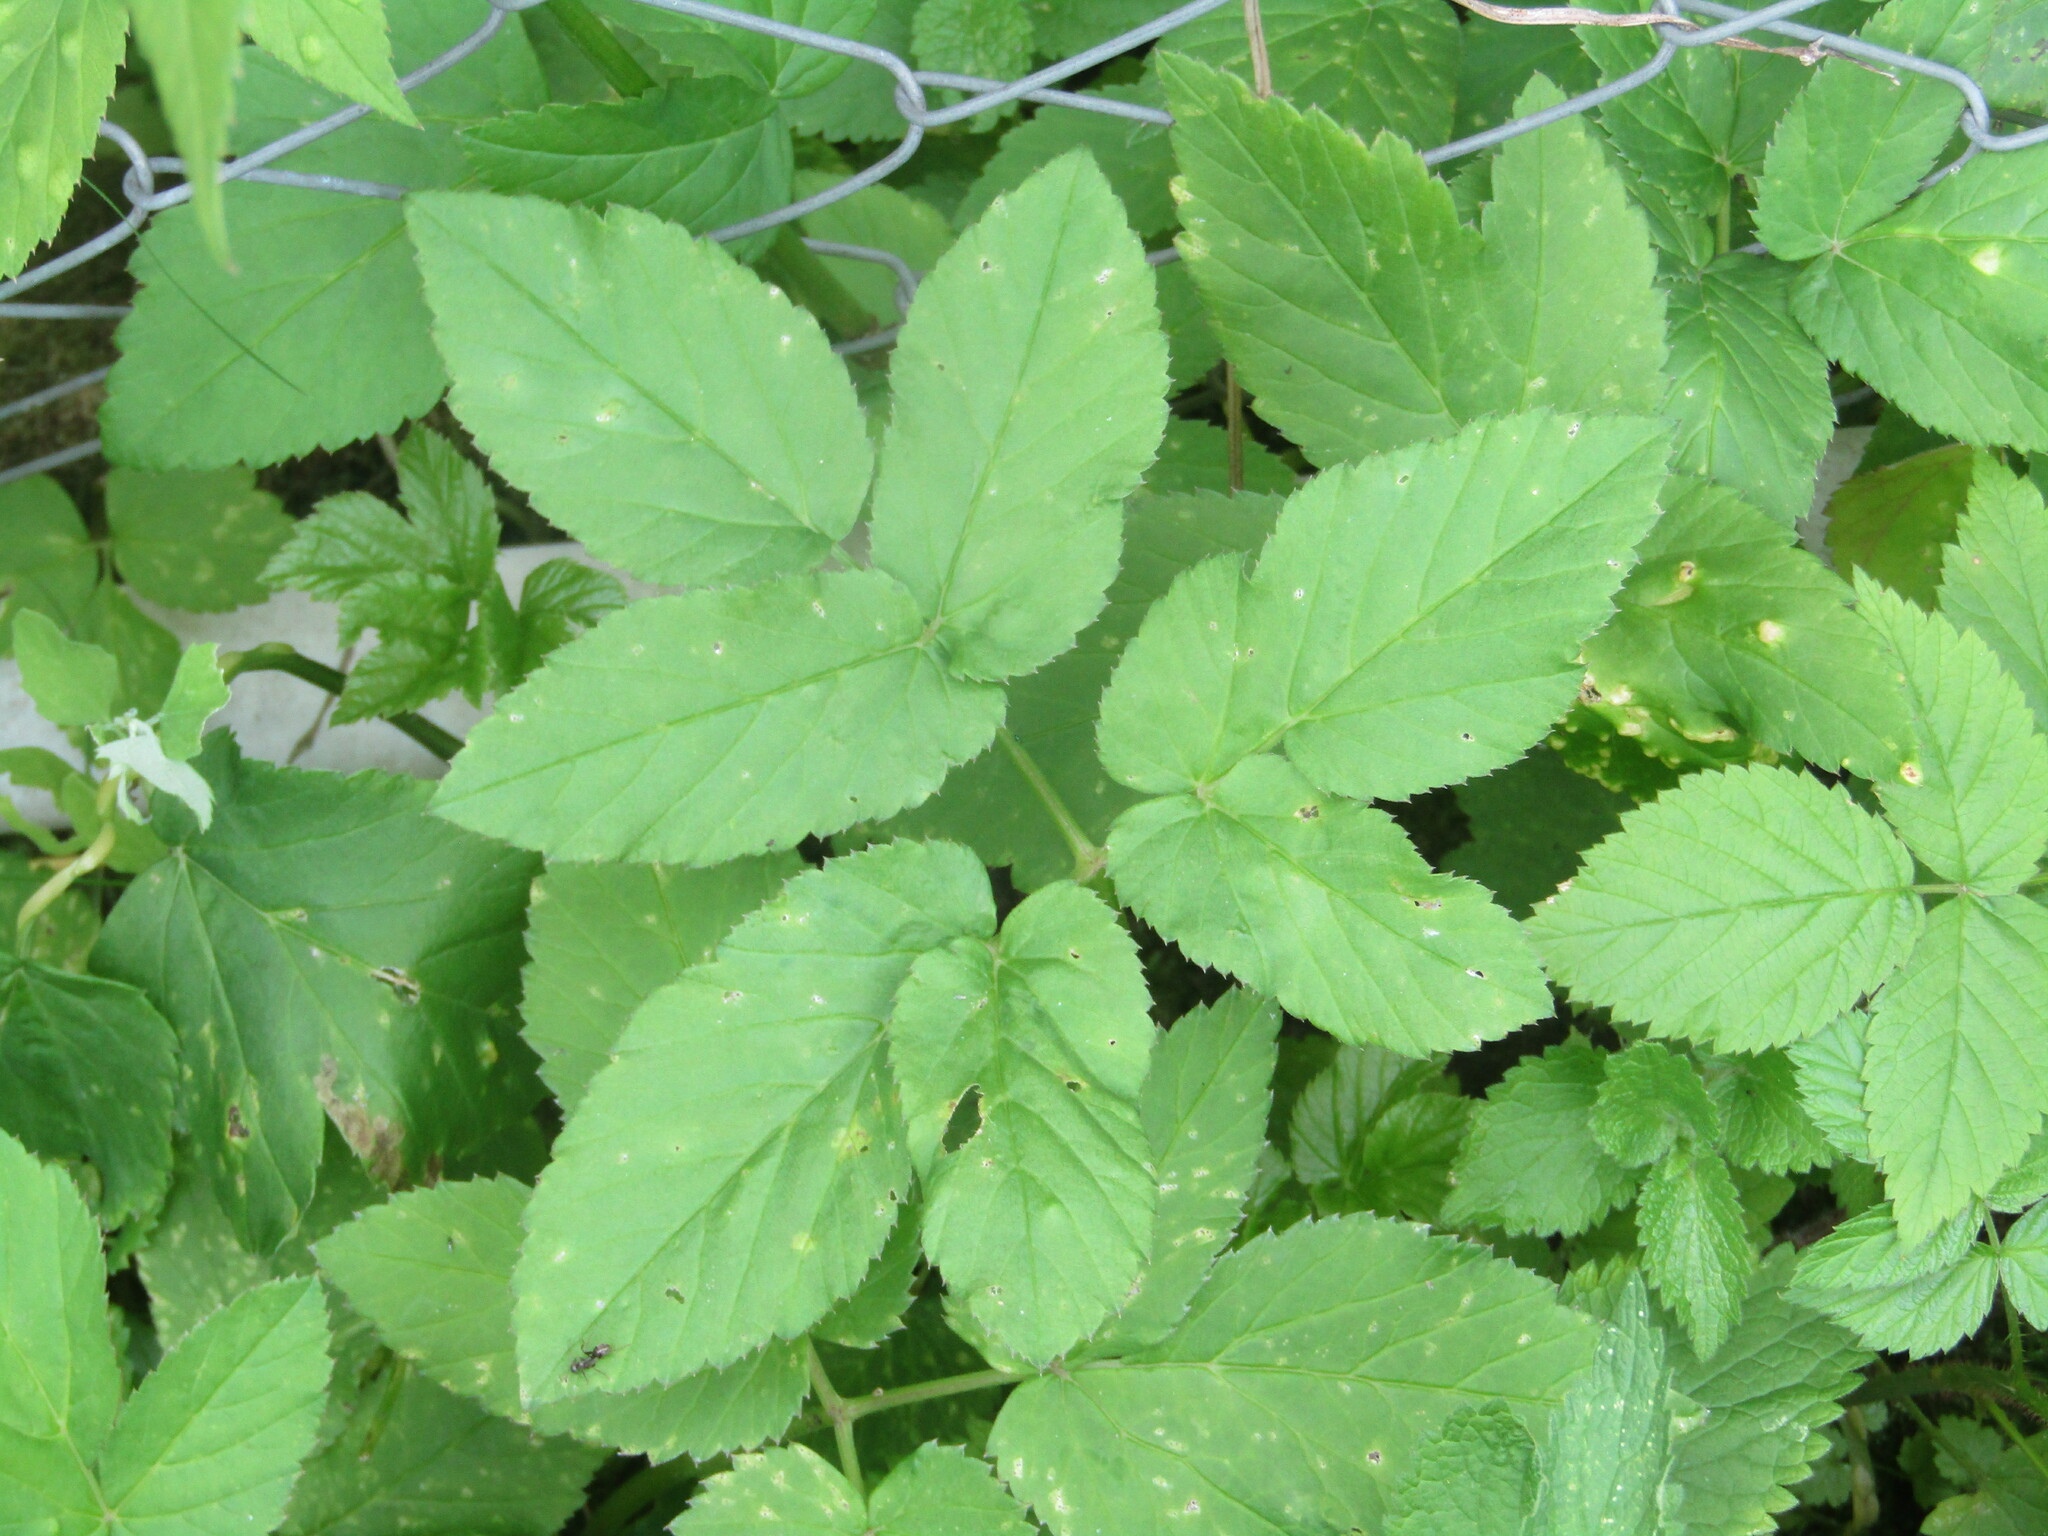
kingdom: Plantae
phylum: Tracheophyta
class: Magnoliopsida
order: Apiales
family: Apiaceae
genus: Aegopodium
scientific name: Aegopodium podagraria
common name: Ground-elder
